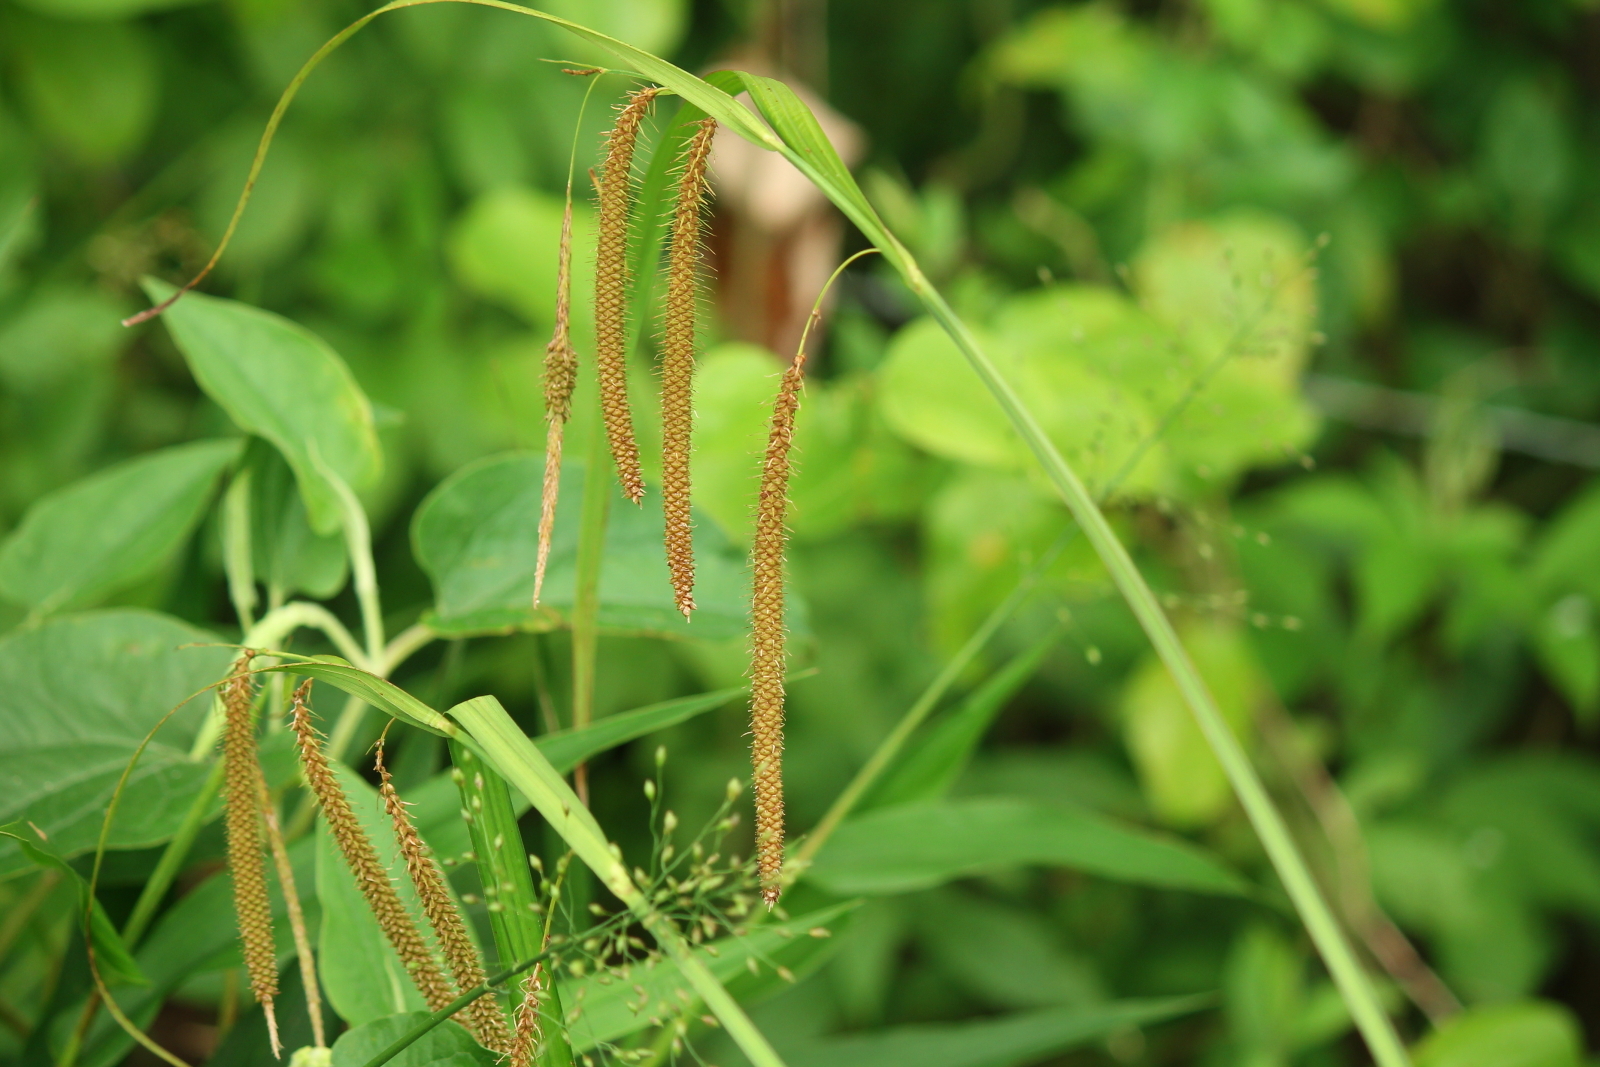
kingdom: Plantae
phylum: Tracheophyta
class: Liliopsida
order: Poales
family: Cyperaceae
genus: Carex
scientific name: Carex crinita
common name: Fringed sedge
